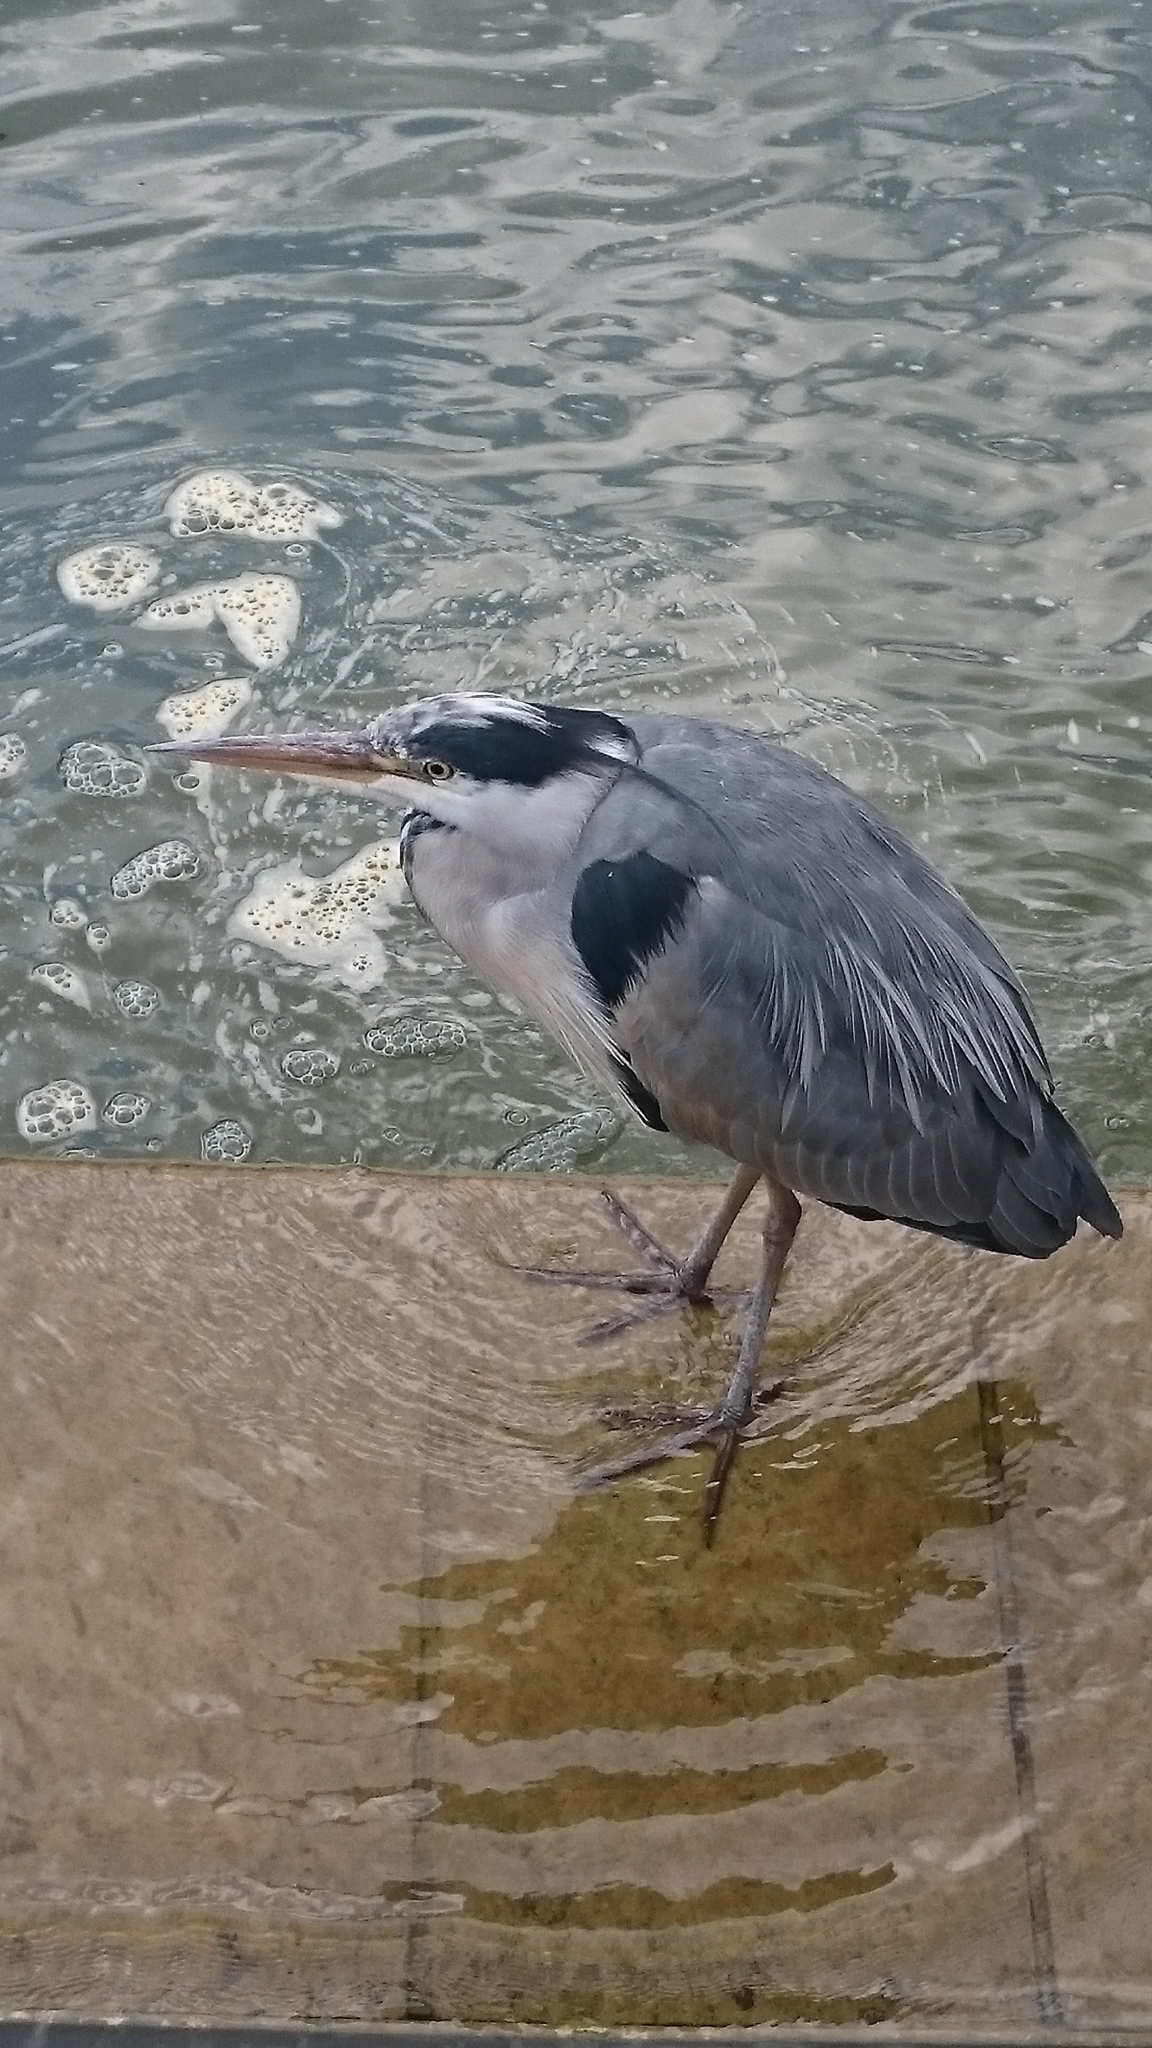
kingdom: Animalia
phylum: Chordata
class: Aves
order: Pelecaniformes
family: Ardeidae
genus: Ardea
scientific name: Ardea cinerea
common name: Grey heron
